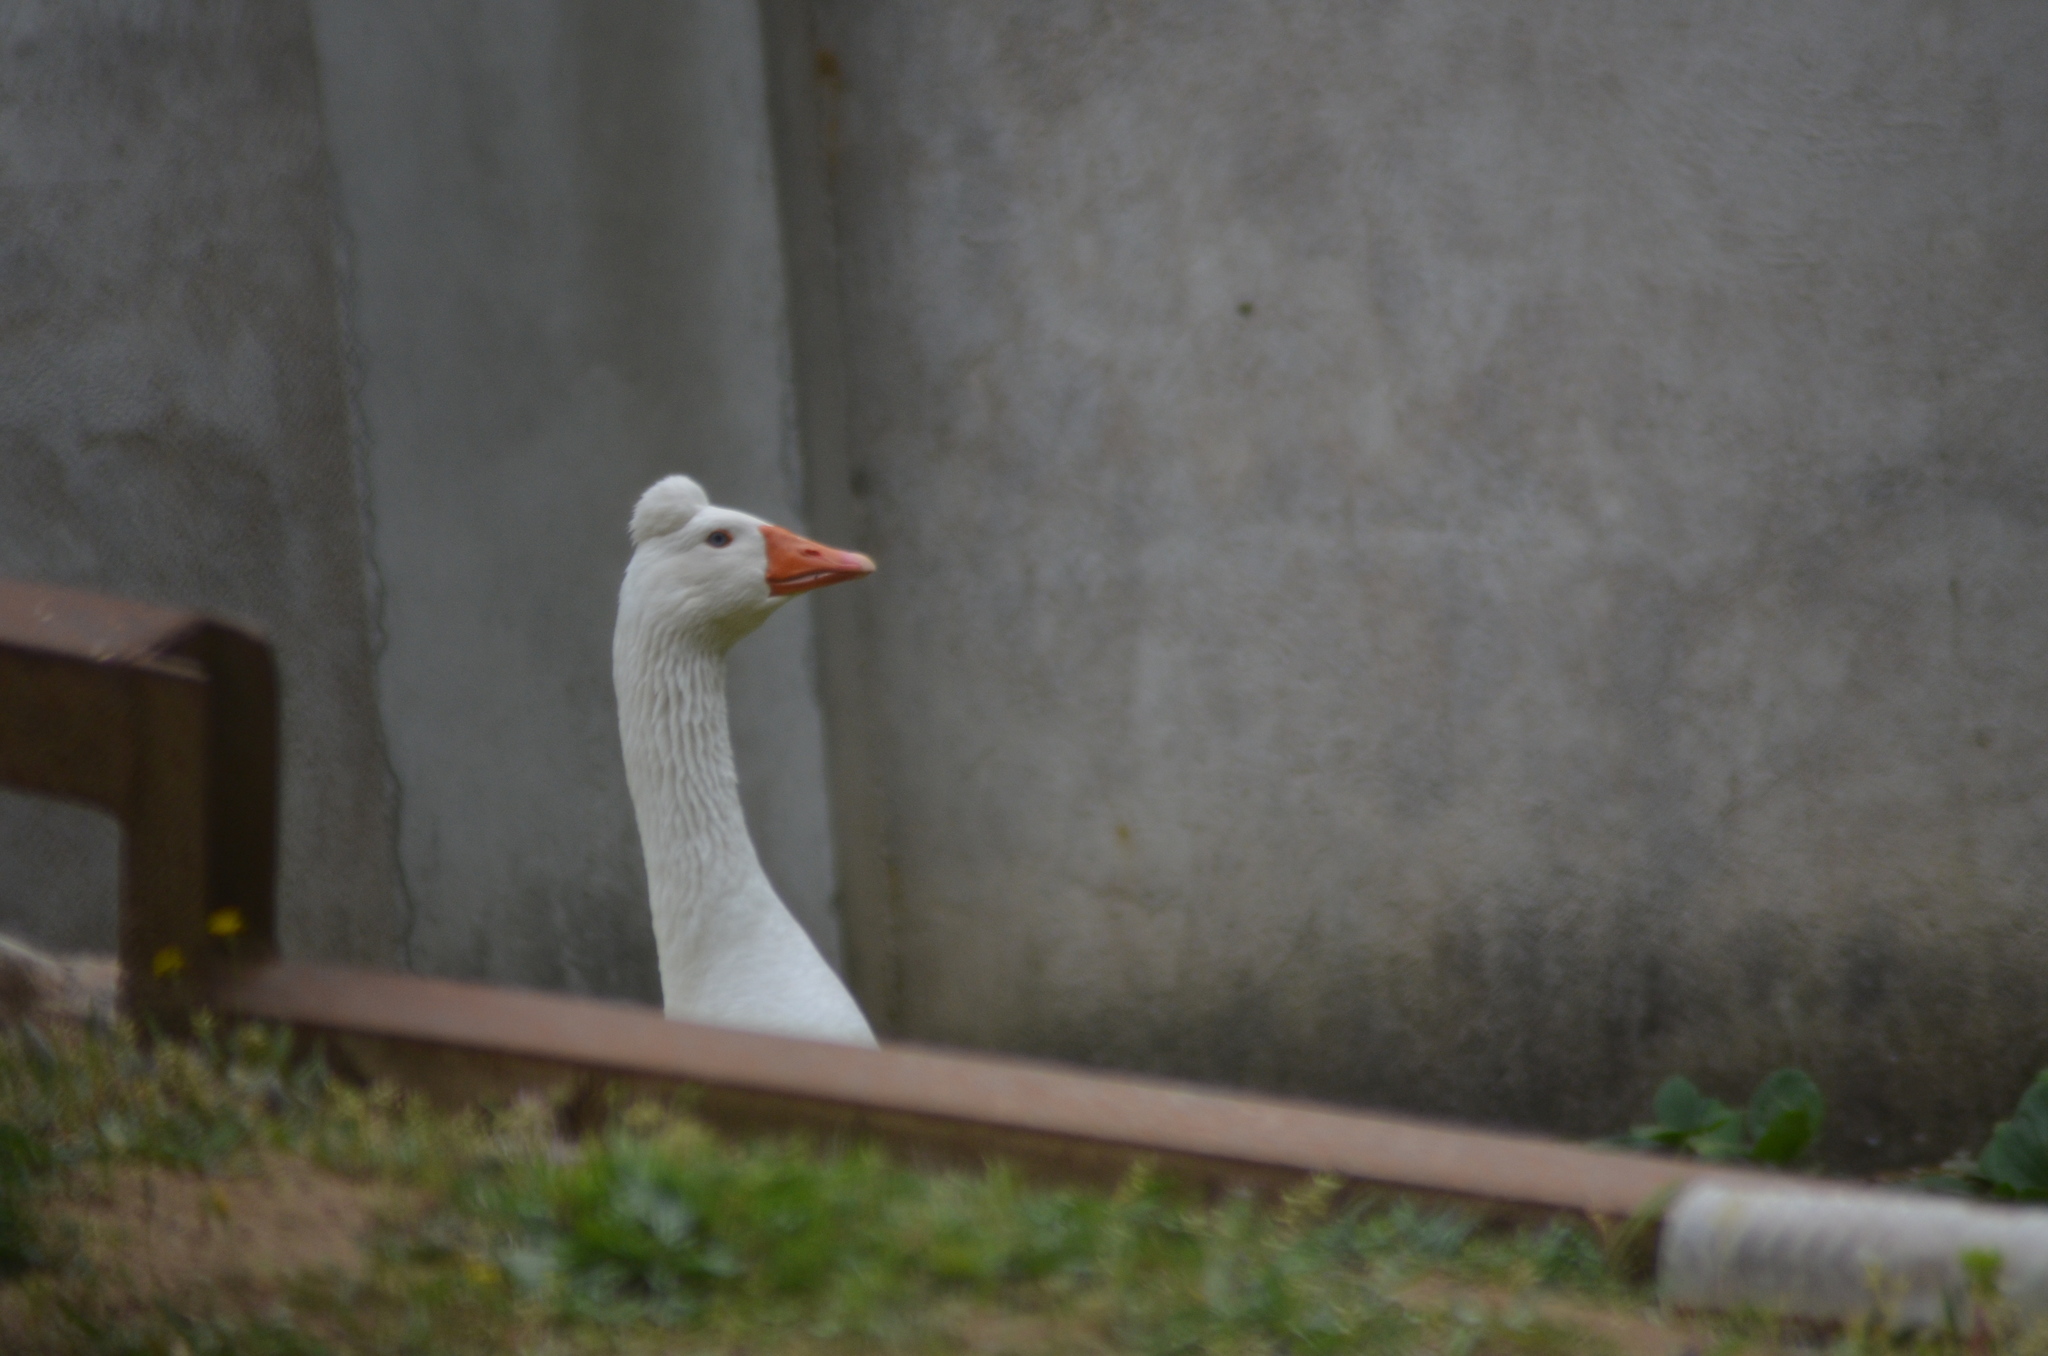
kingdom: Animalia
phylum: Chordata
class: Aves
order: Anseriformes
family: Anatidae
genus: Anser
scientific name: Anser anser
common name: Greylag goose
